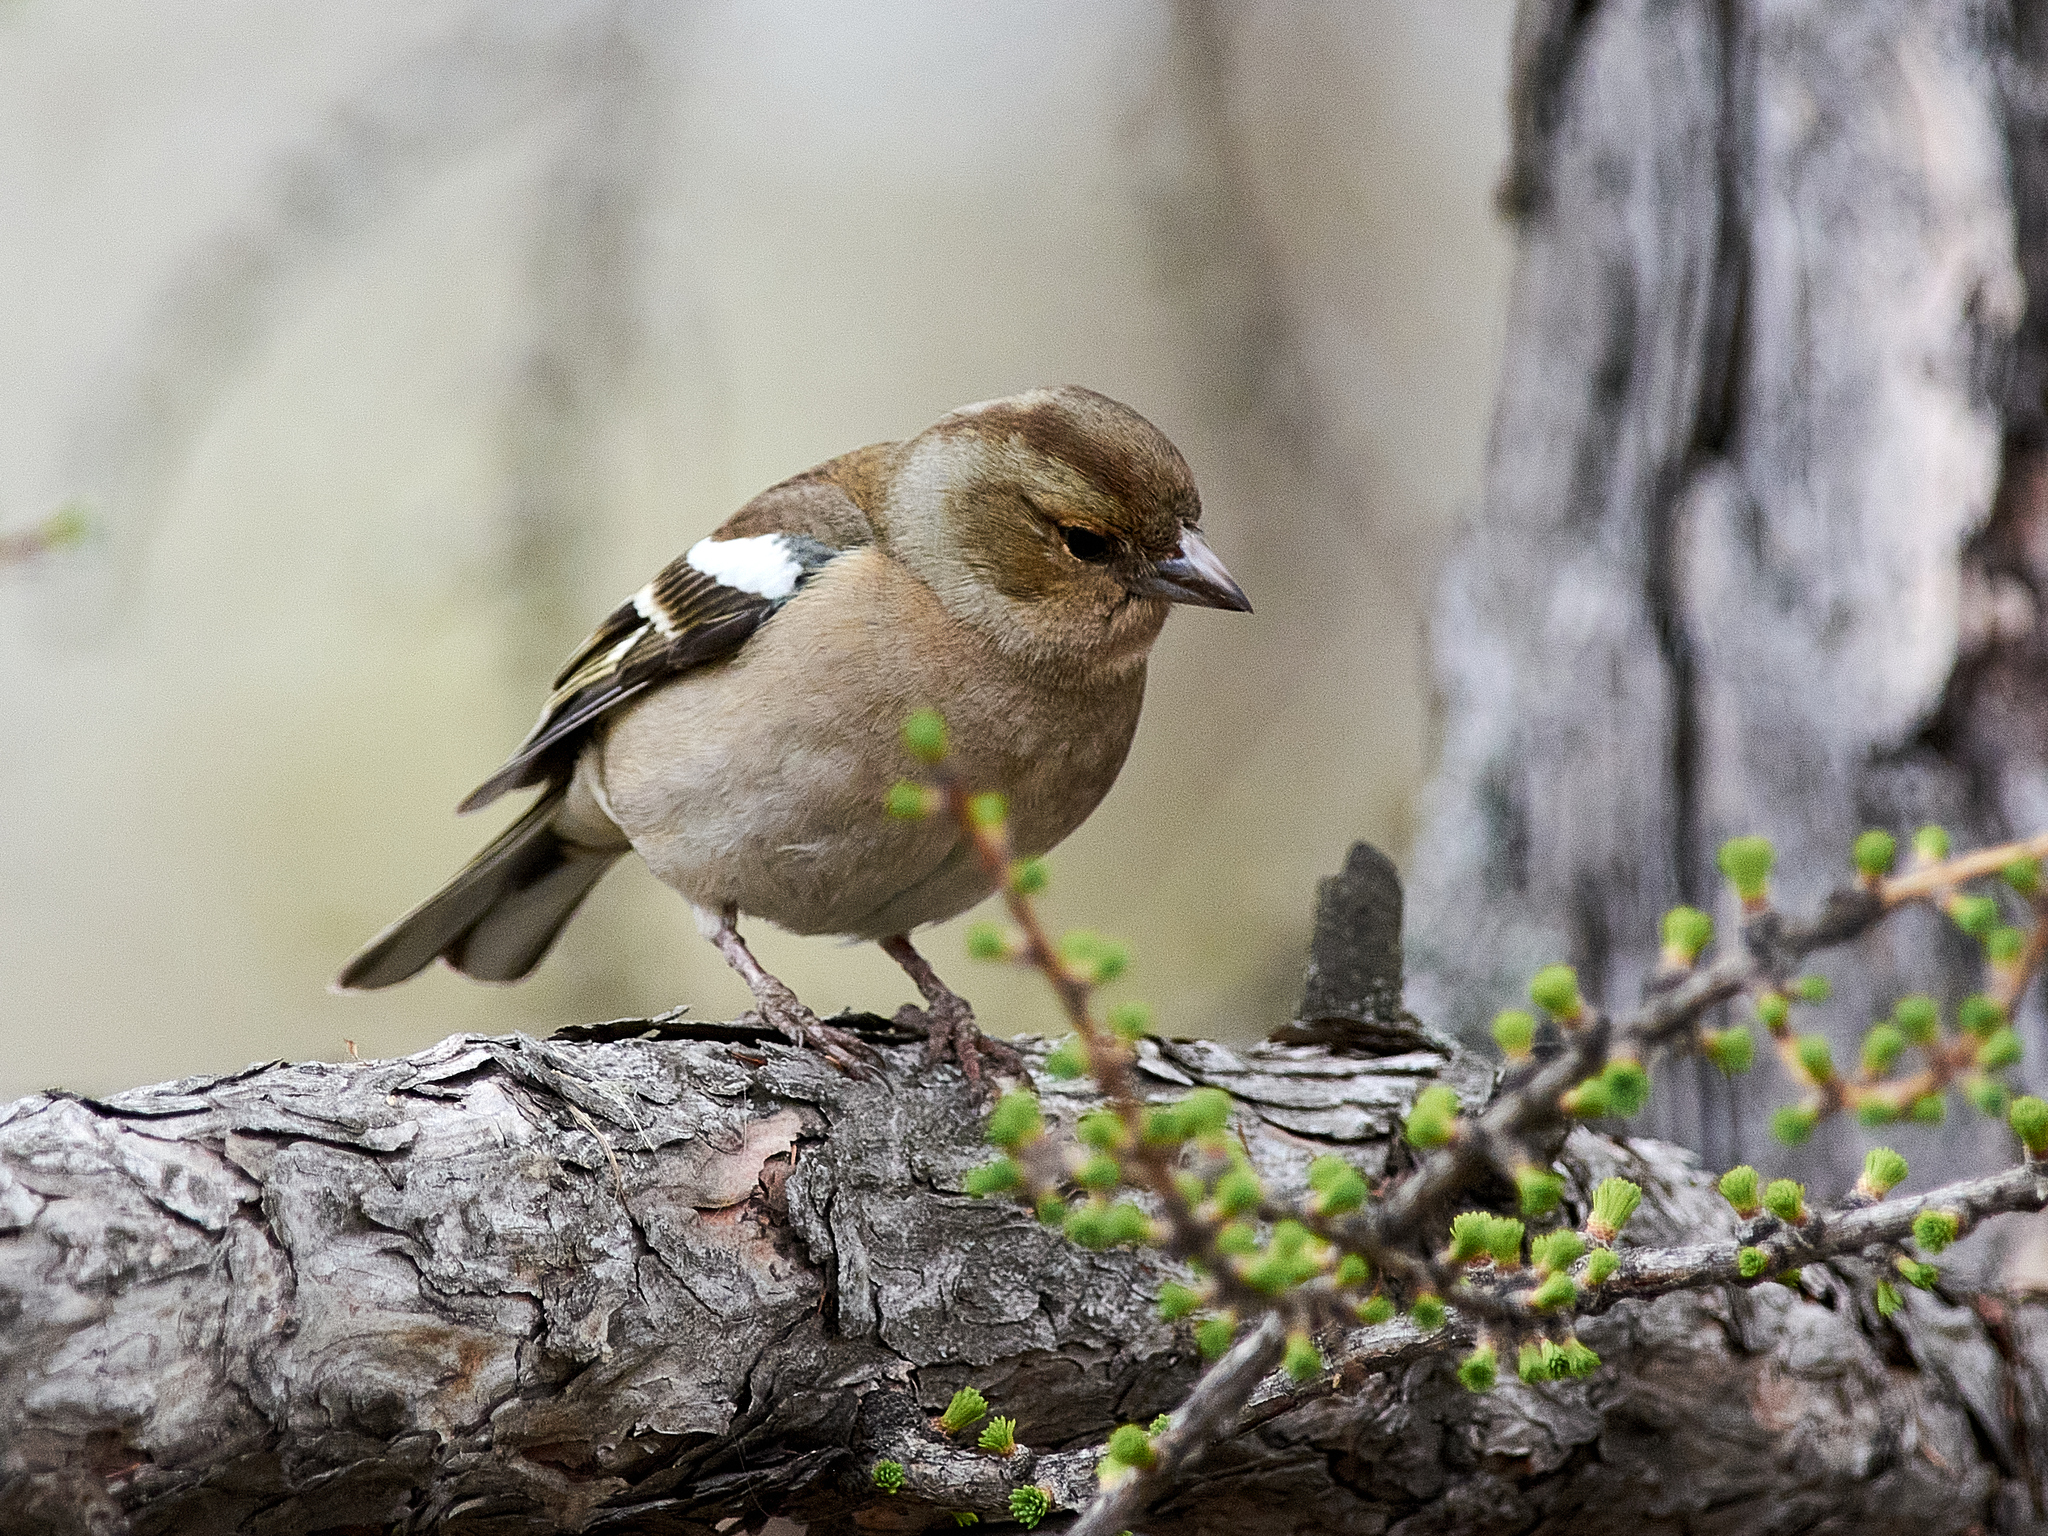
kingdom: Animalia
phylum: Chordata
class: Aves
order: Passeriformes
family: Fringillidae
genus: Fringilla
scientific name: Fringilla coelebs
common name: Common chaffinch
